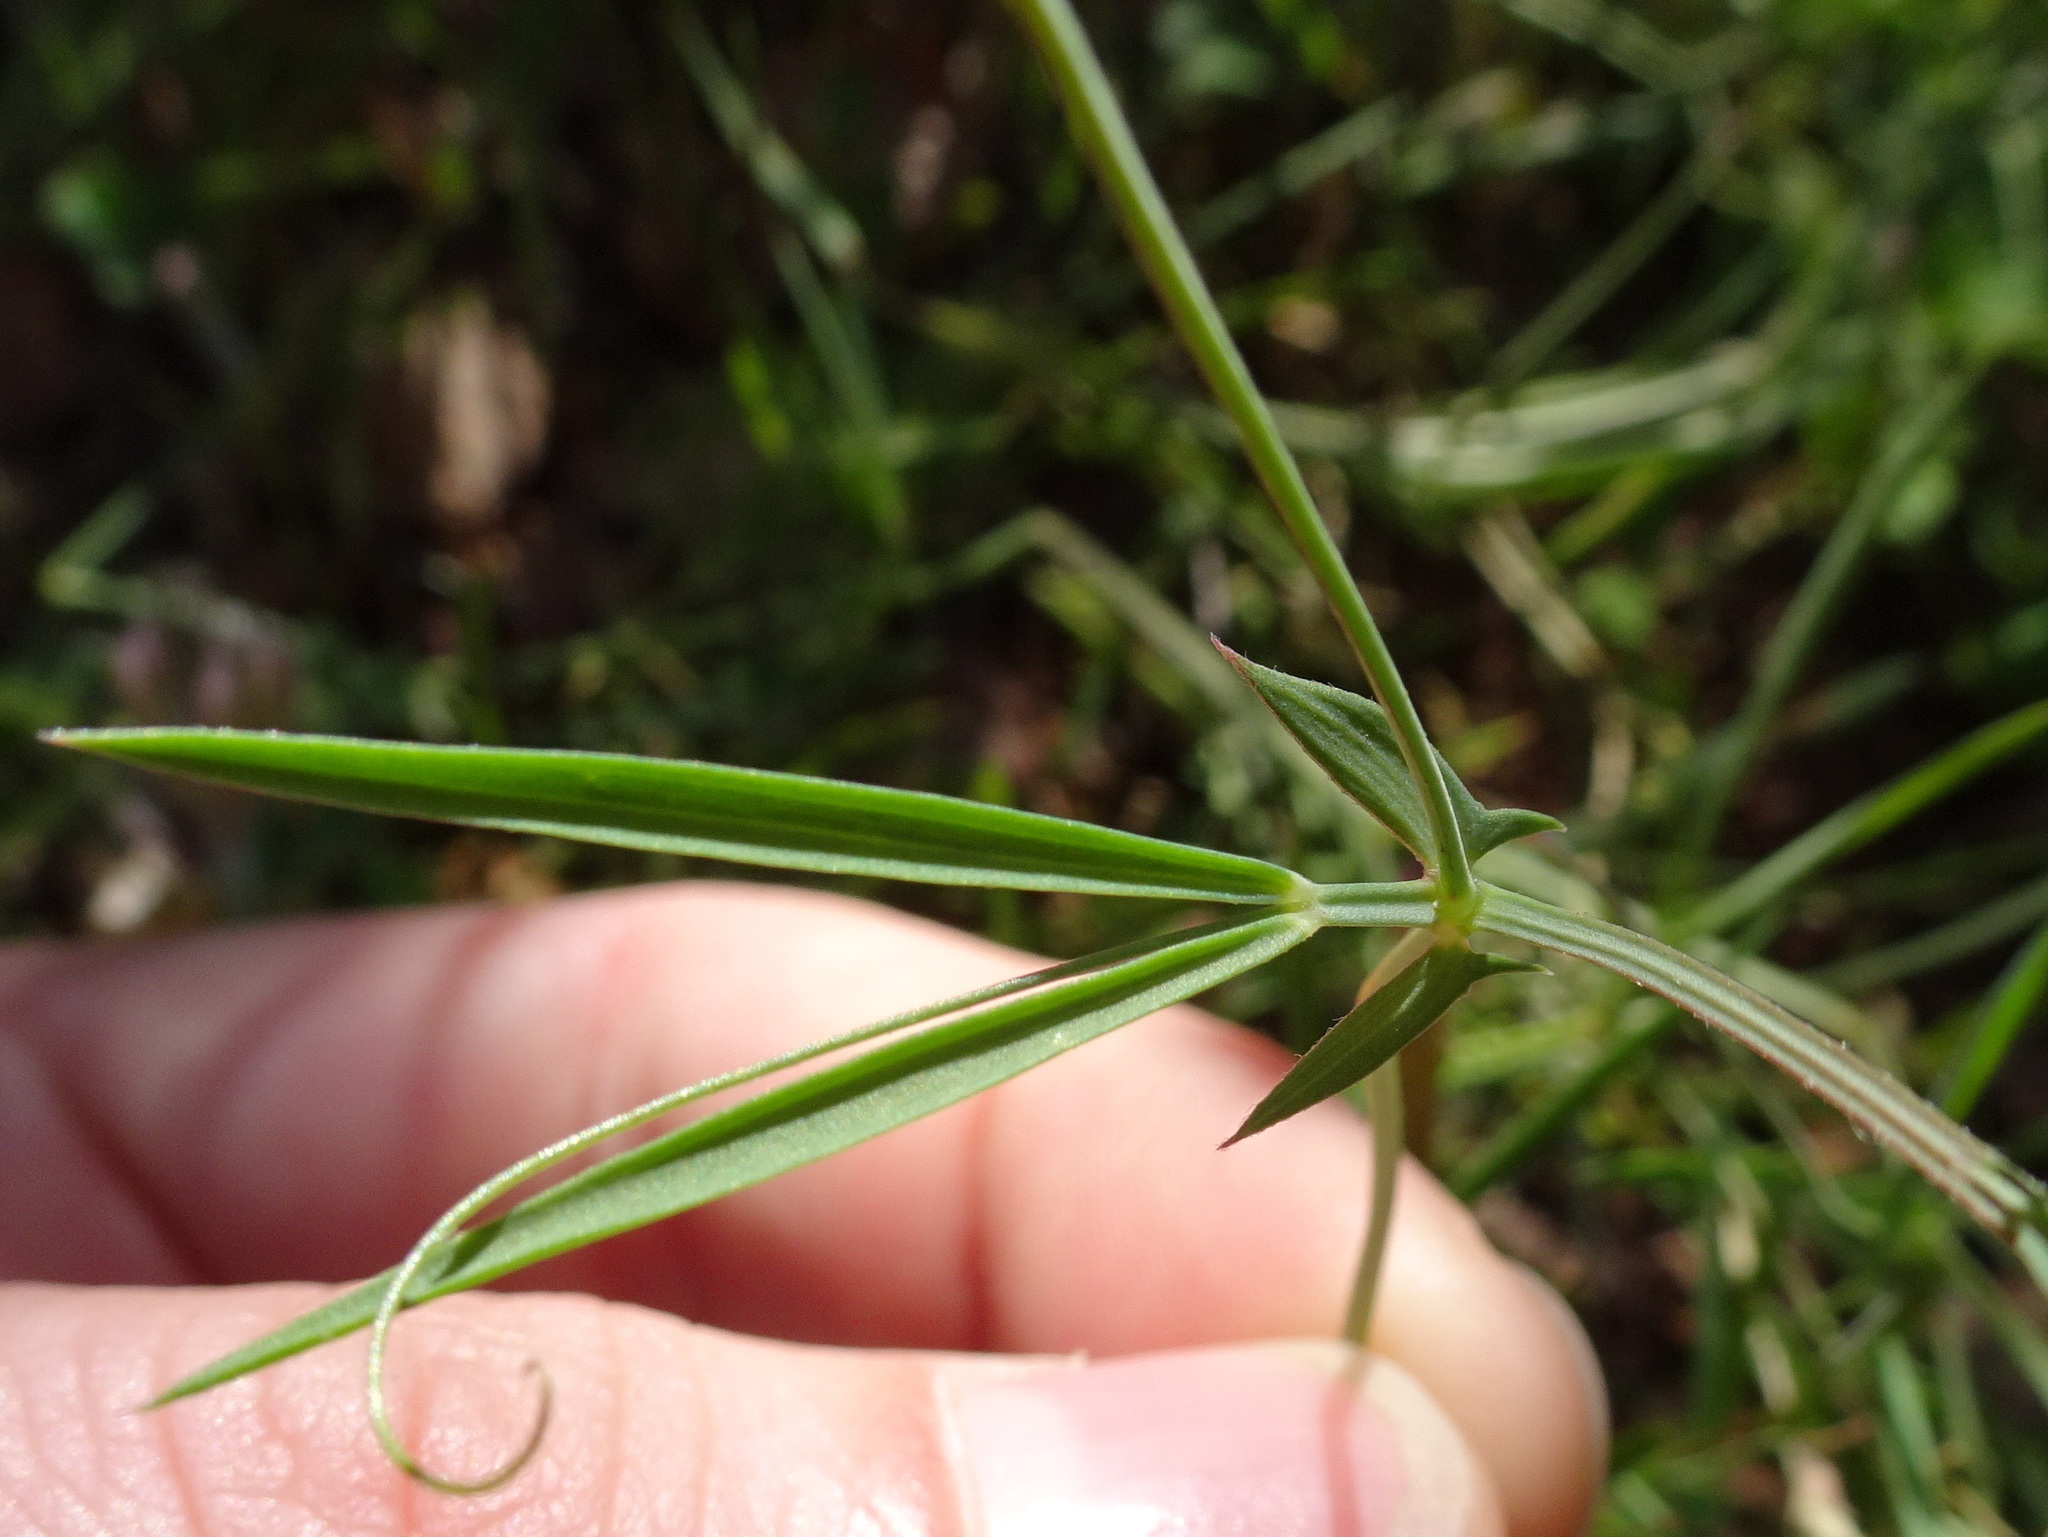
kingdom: Plantae
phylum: Tracheophyta
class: Magnoliopsida
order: Fabales
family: Fabaceae
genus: Lathyrus
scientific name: Lathyrus angulatus
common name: Angular pea
